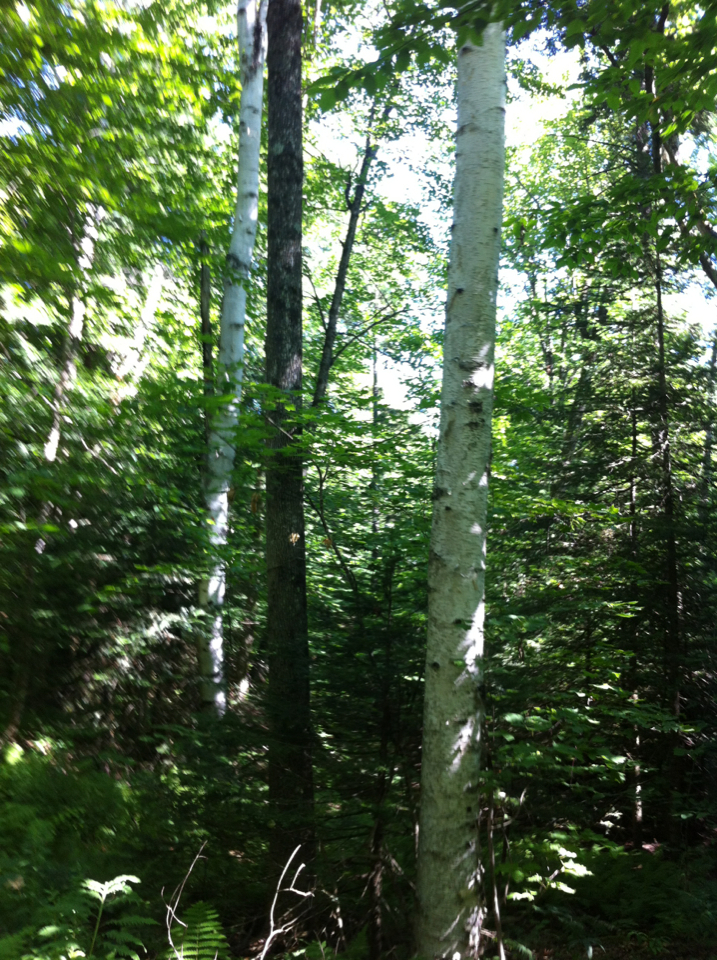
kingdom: Plantae
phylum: Tracheophyta
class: Magnoliopsida
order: Fagales
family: Betulaceae
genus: Betula
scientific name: Betula papyrifera
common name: Paper birch
